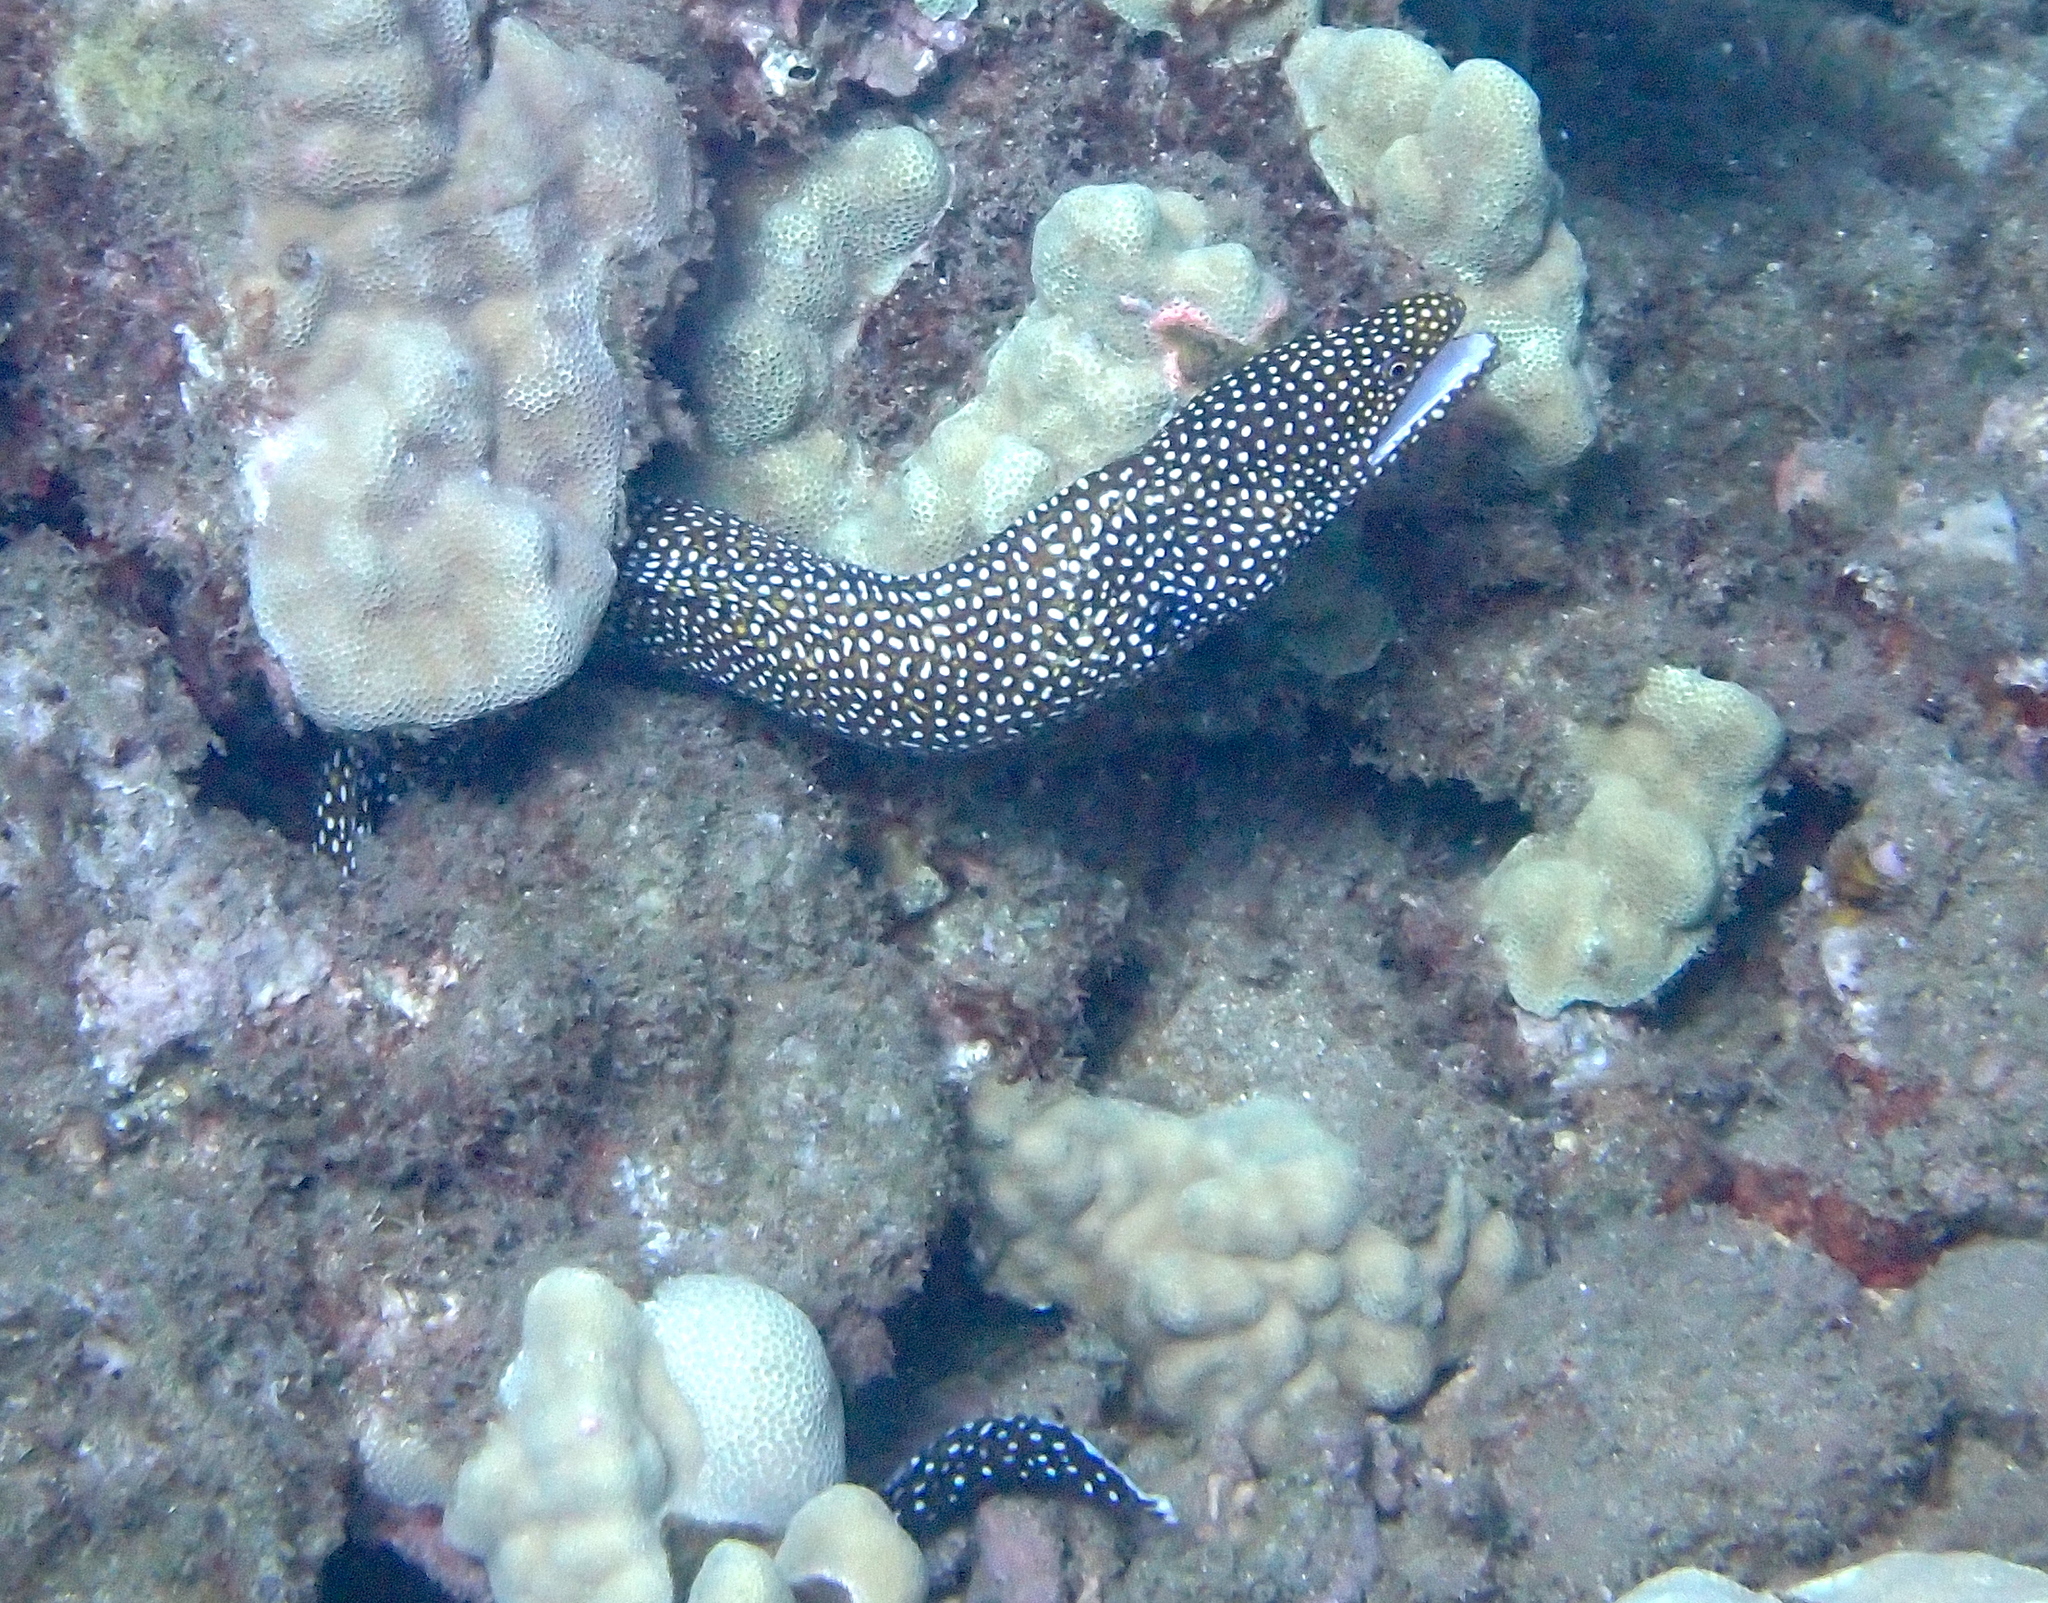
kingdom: Animalia
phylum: Chordata
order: Anguilliformes
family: Muraenidae
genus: Gymnothorax
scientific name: Gymnothorax meleagris
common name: Guineafowl moray
